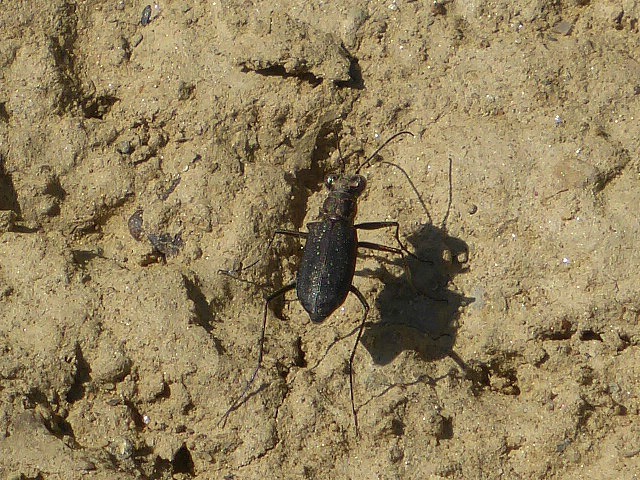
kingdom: Animalia
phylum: Arthropoda
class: Insecta
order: Coleoptera
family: Carabidae
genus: Cicindela
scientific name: Cicindela punctulata
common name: Punctured tiger beetle
